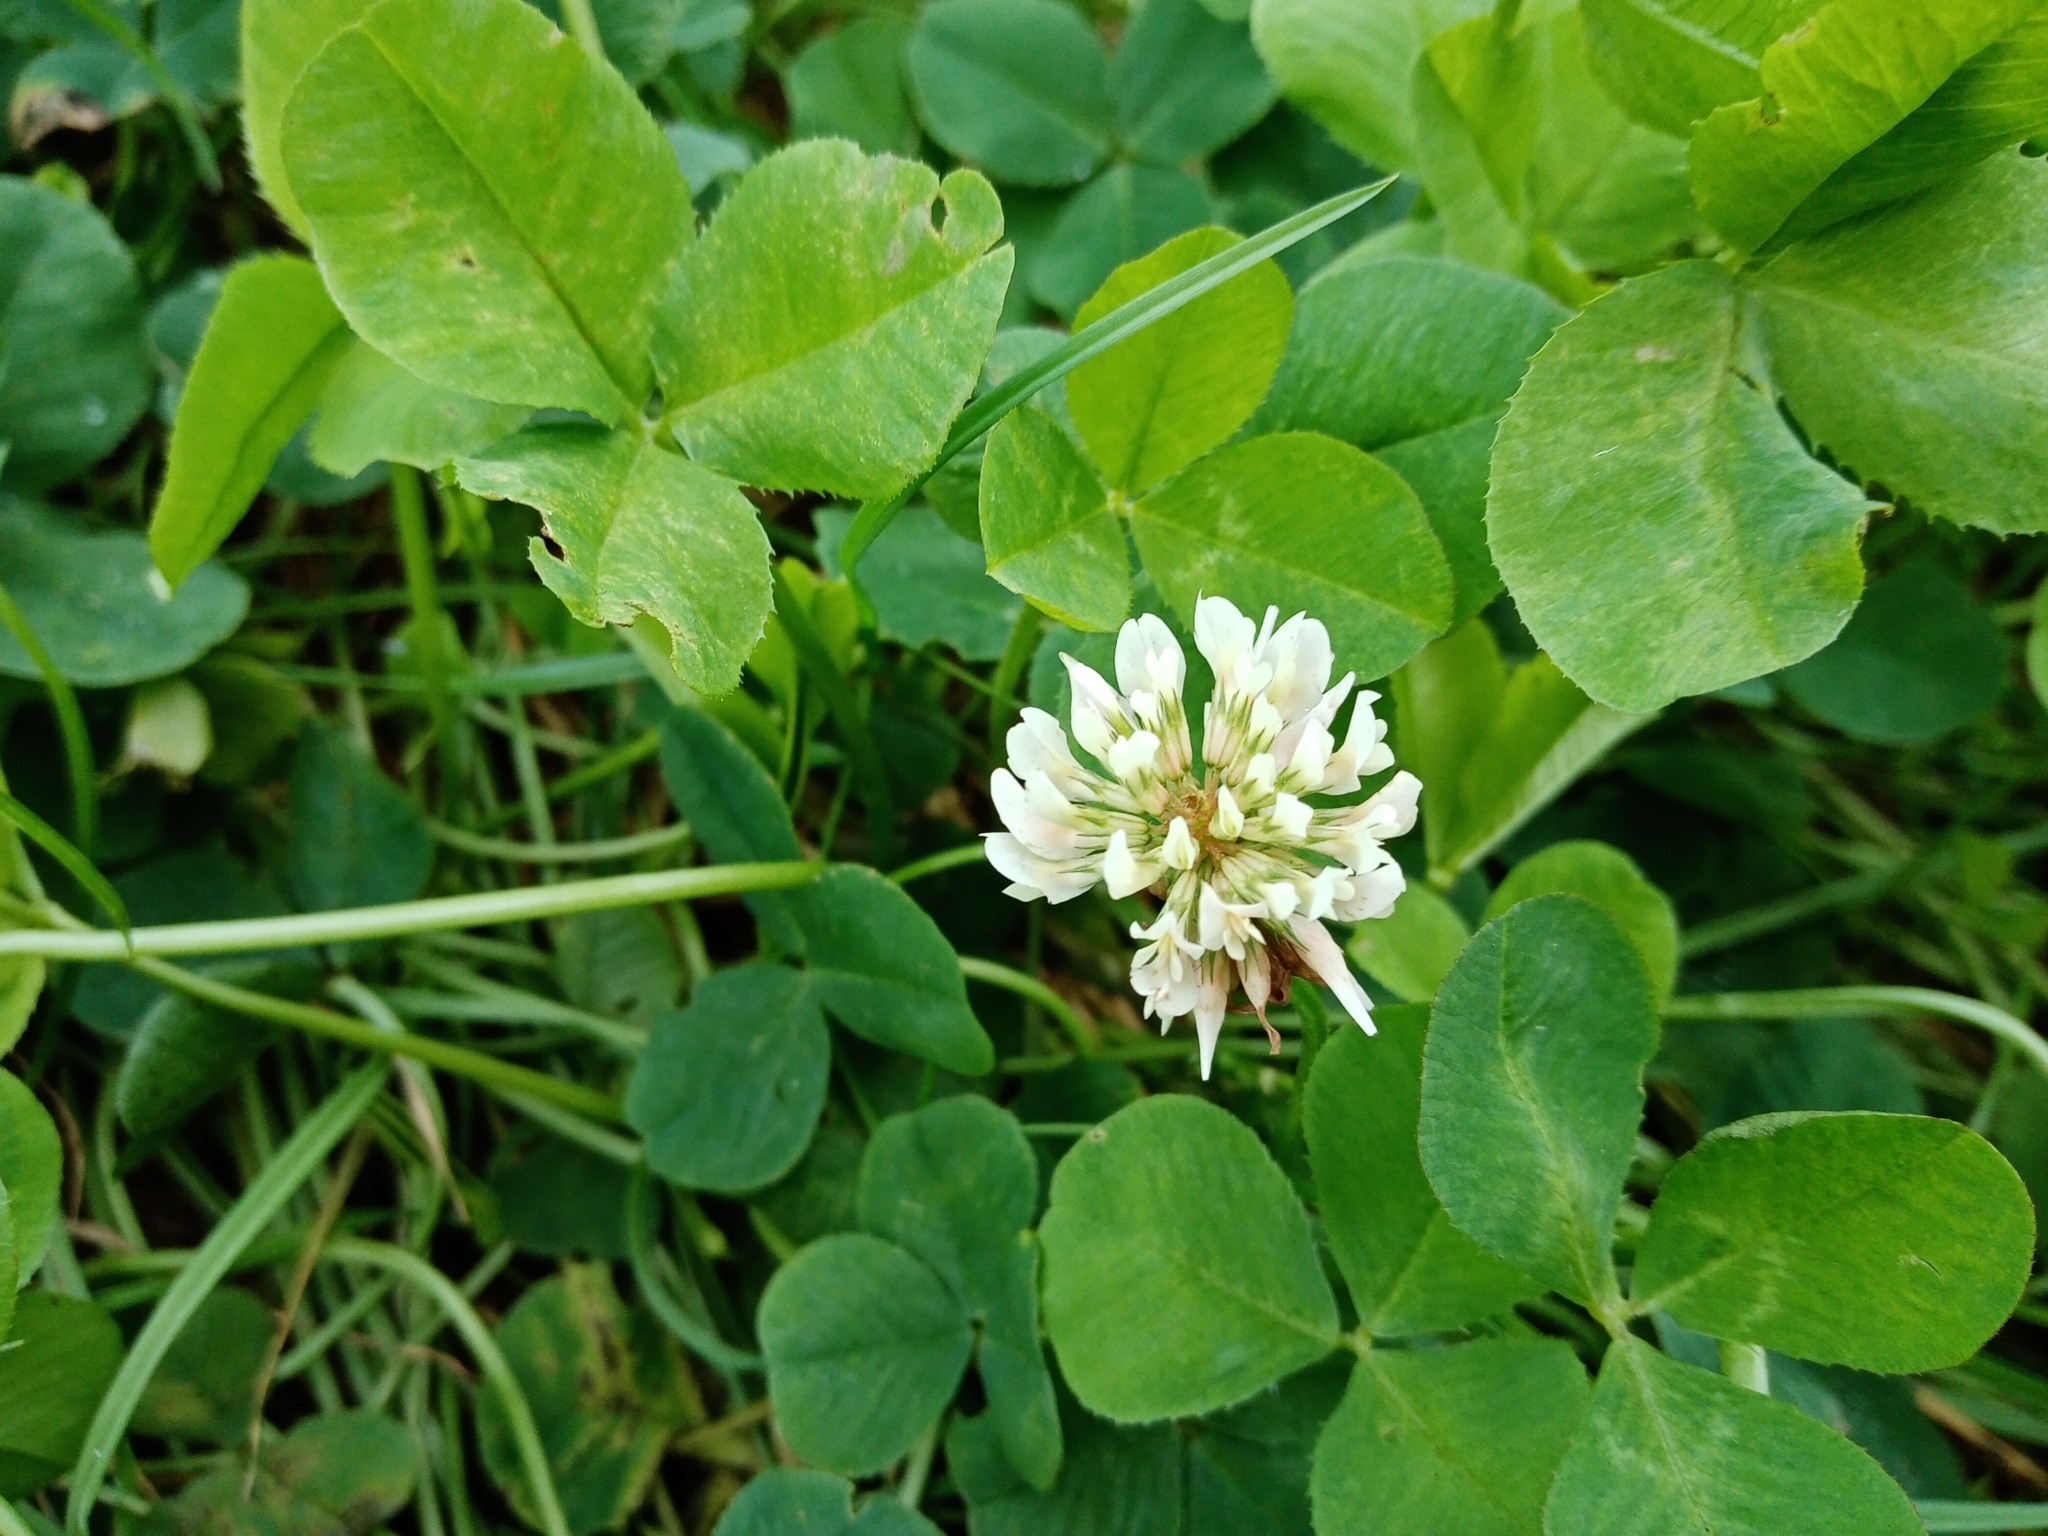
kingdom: Plantae
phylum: Tracheophyta
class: Magnoliopsida
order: Fabales
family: Fabaceae
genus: Trifolium
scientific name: Trifolium repens
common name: White clover
